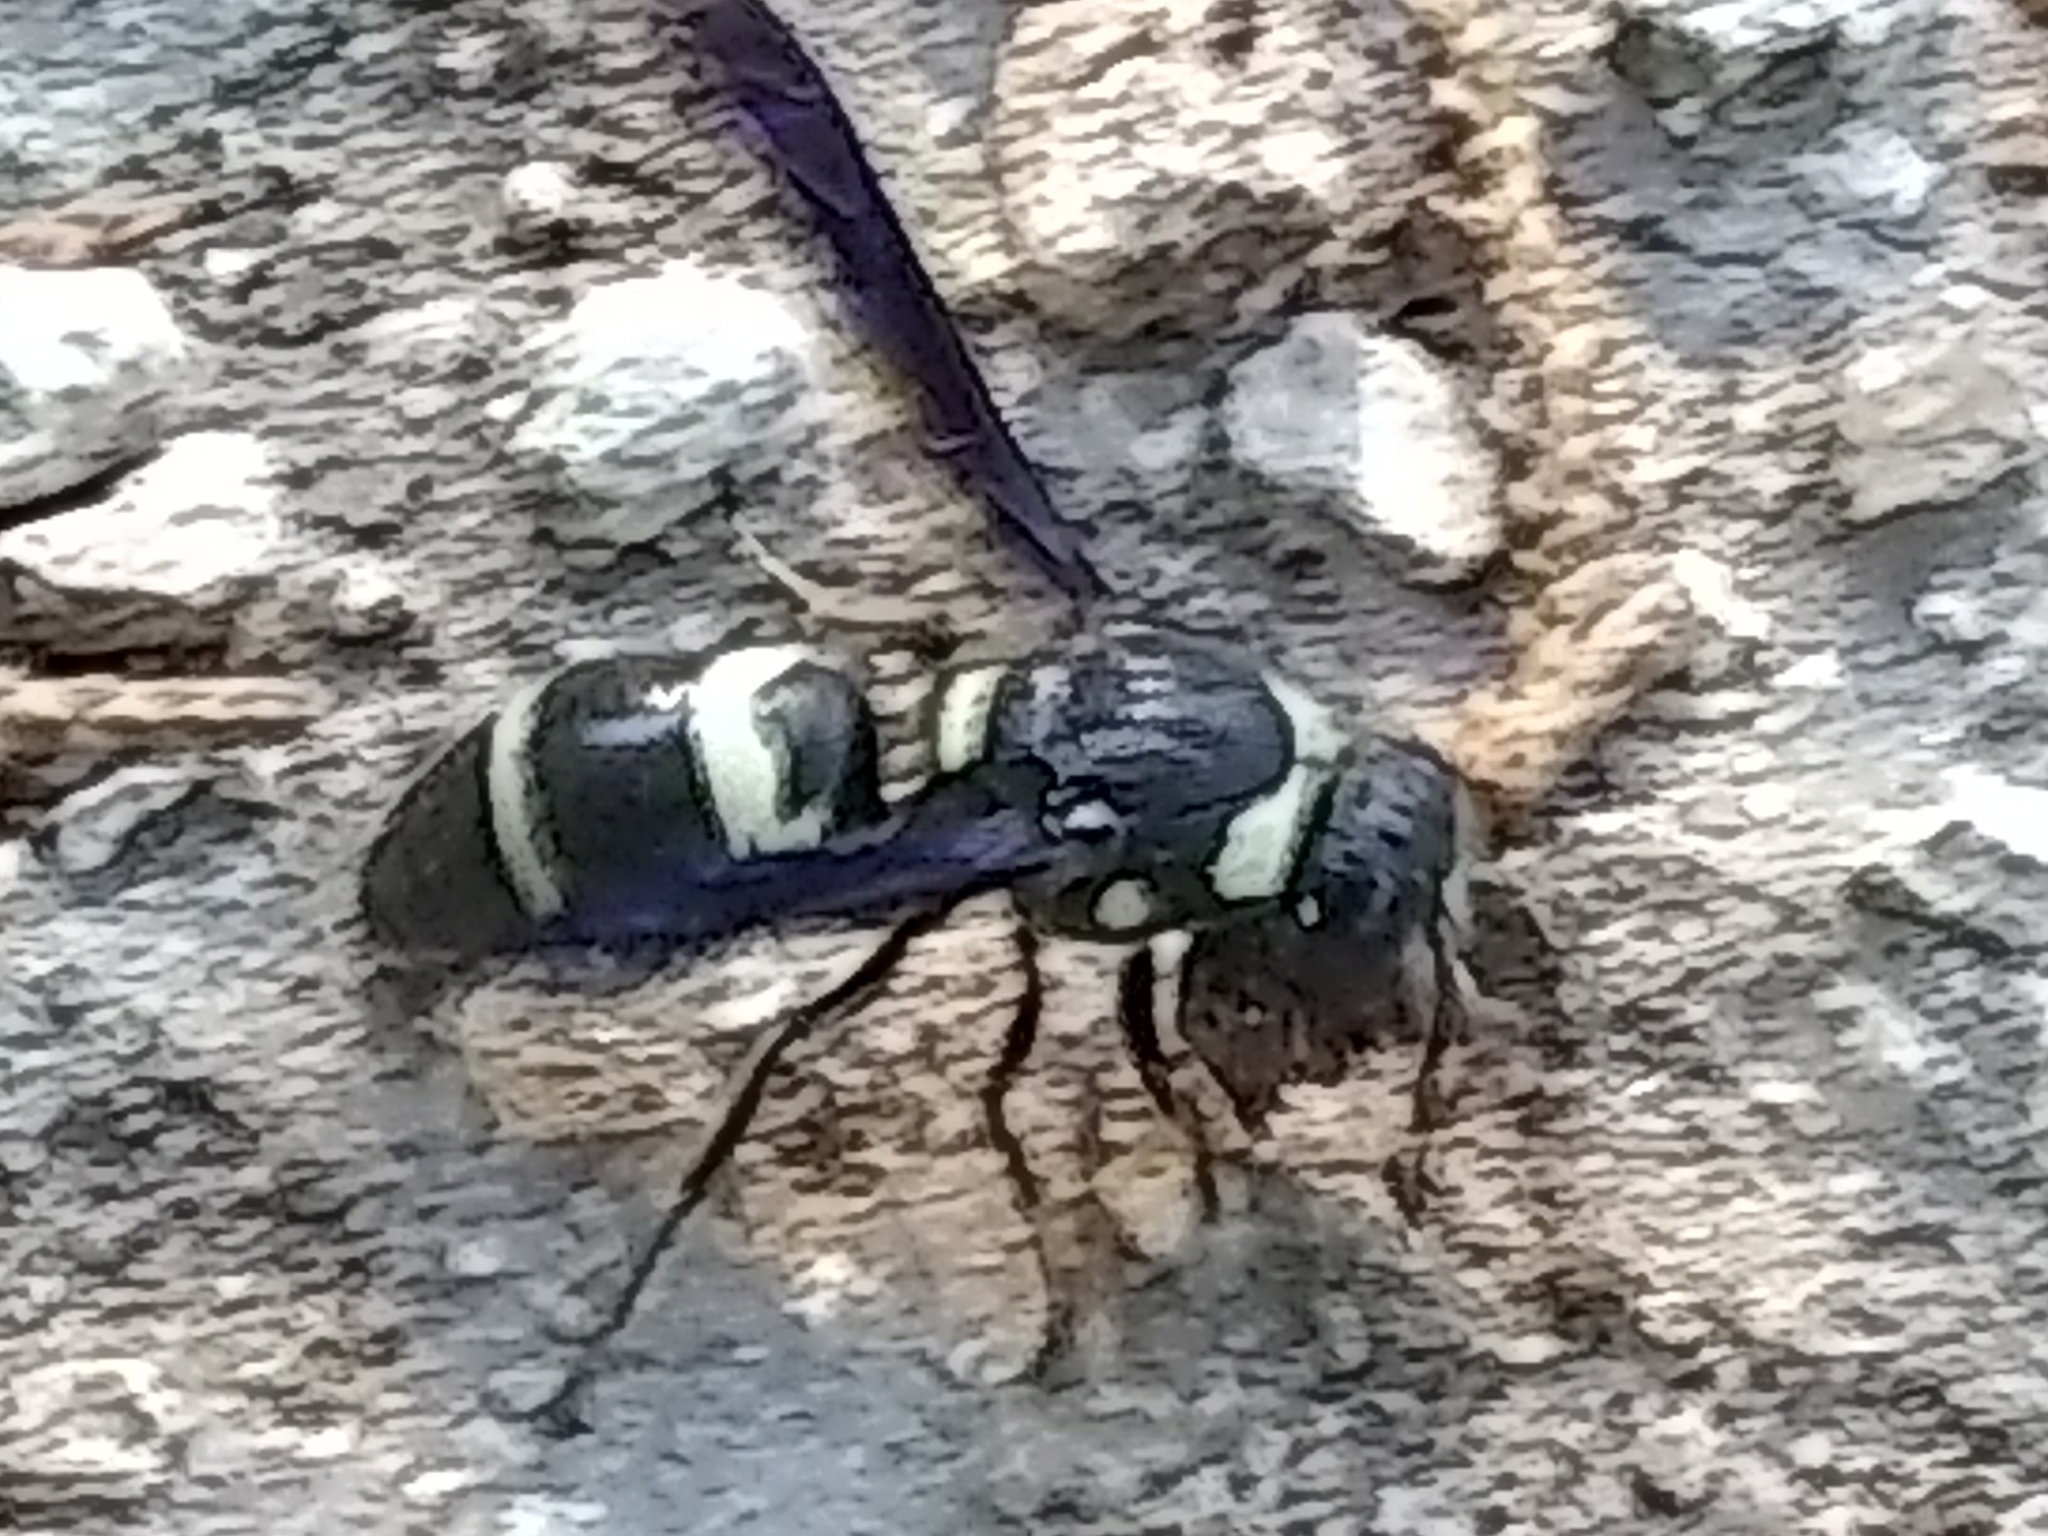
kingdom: Animalia
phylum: Arthropoda
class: Insecta
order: Hymenoptera
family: Eumenidae
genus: Euodynerus
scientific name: Euodynerus megaera
